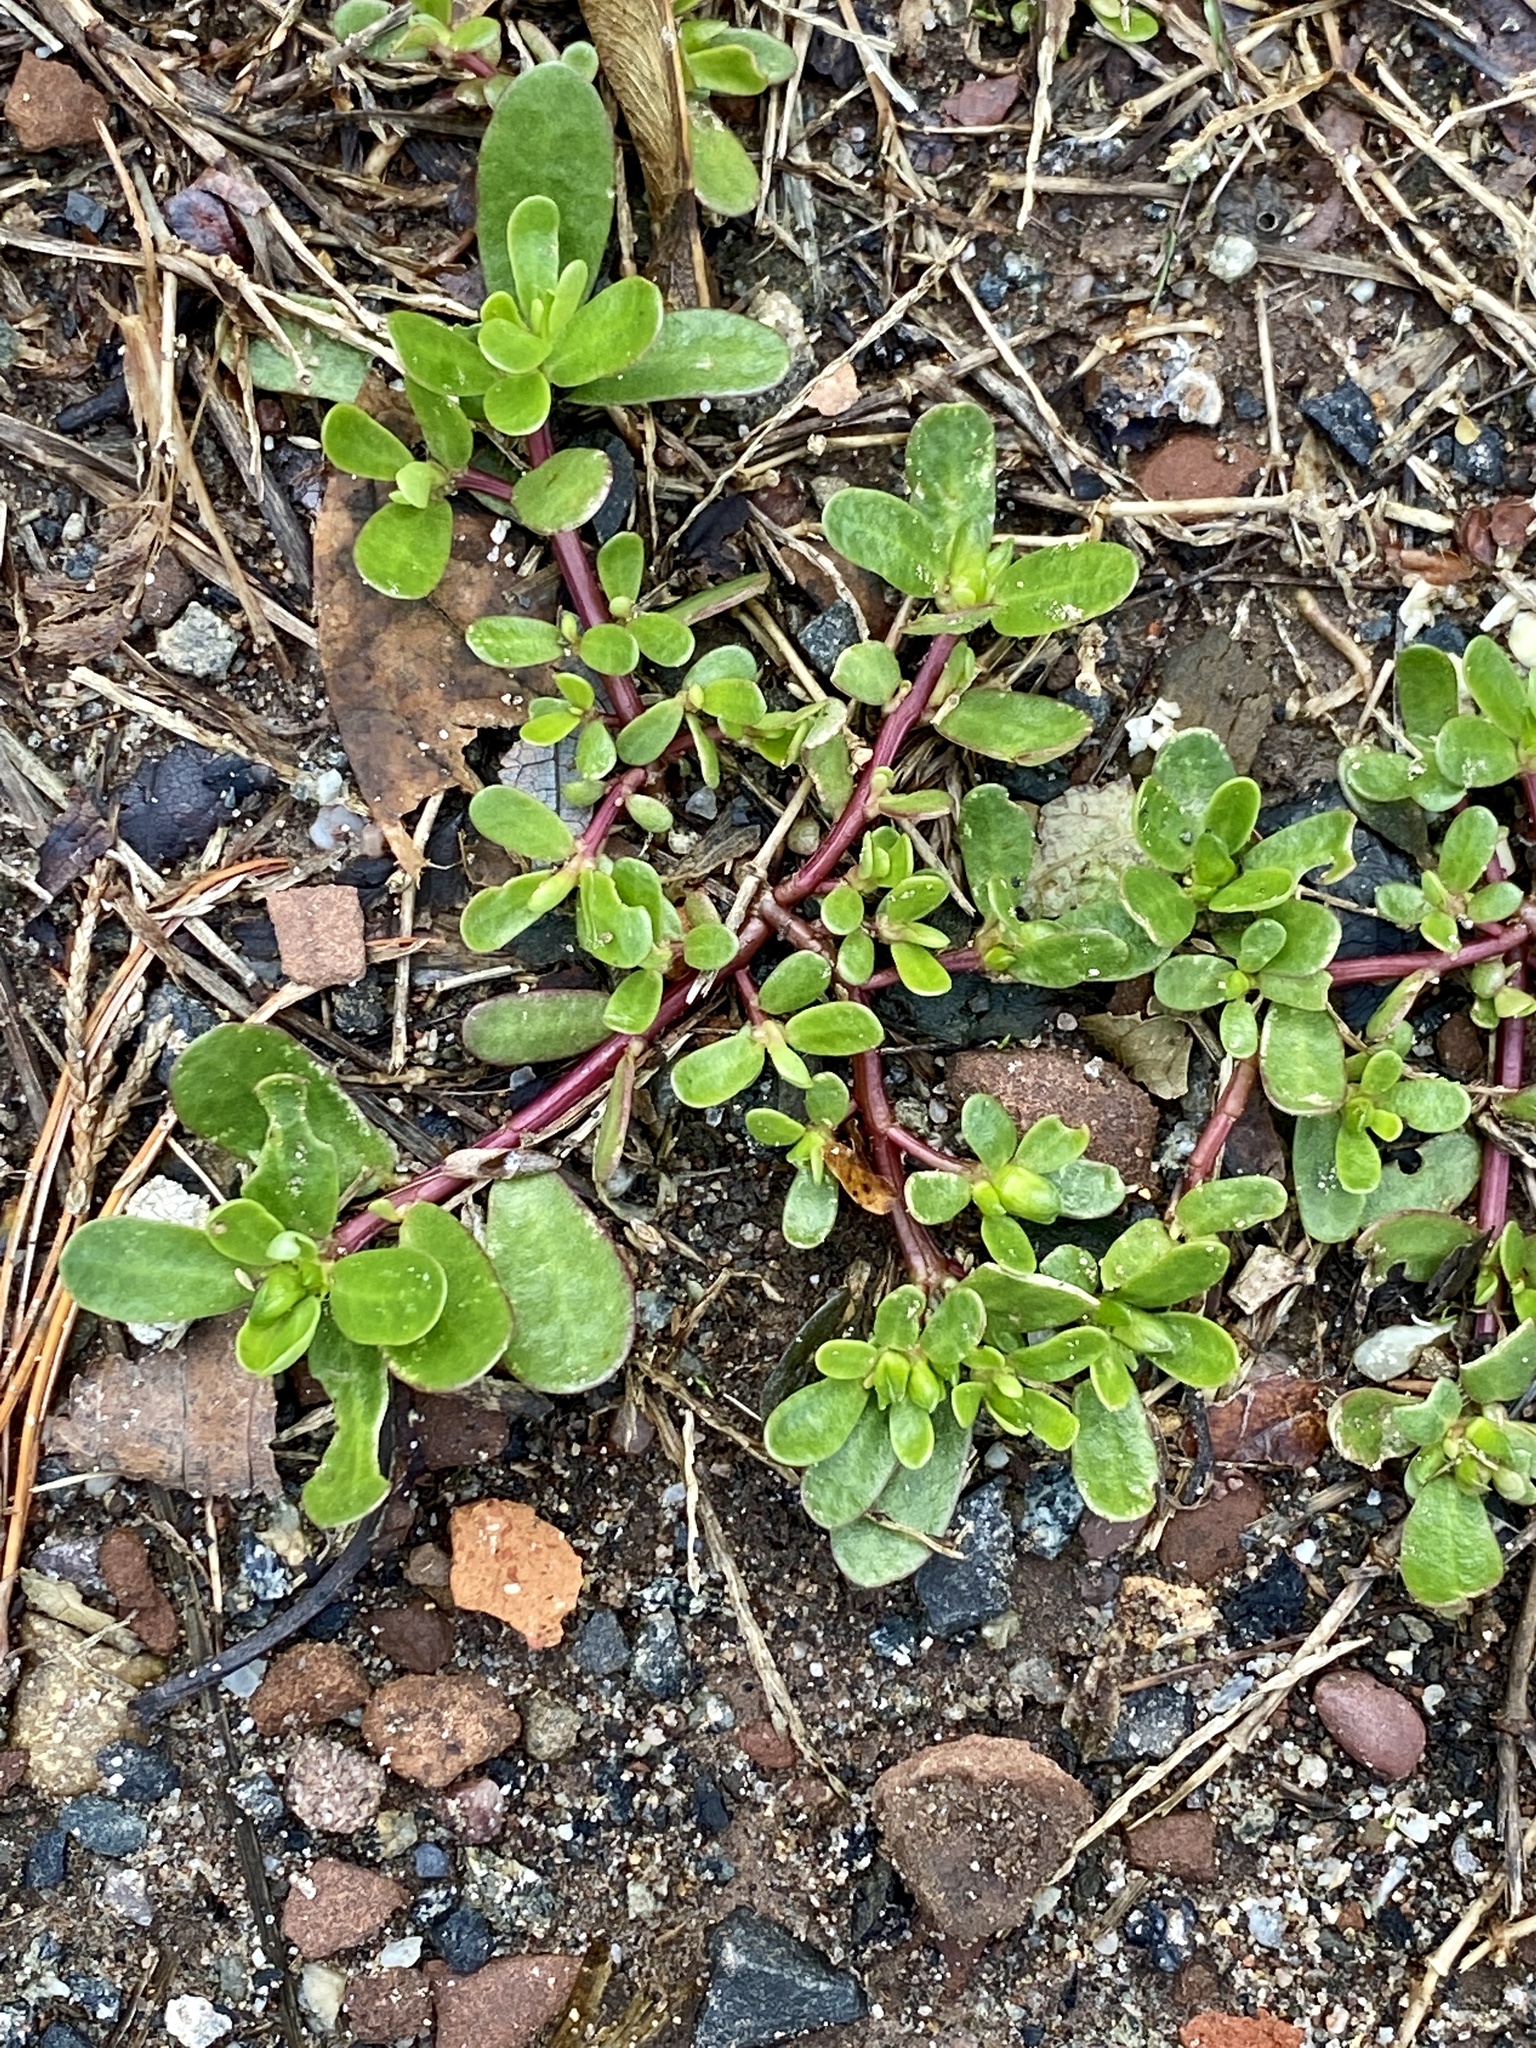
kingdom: Plantae
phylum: Tracheophyta
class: Magnoliopsida
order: Caryophyllales
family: Portulacaceae
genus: Portulaca
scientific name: Portulaca oleracea
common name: Common purslane
